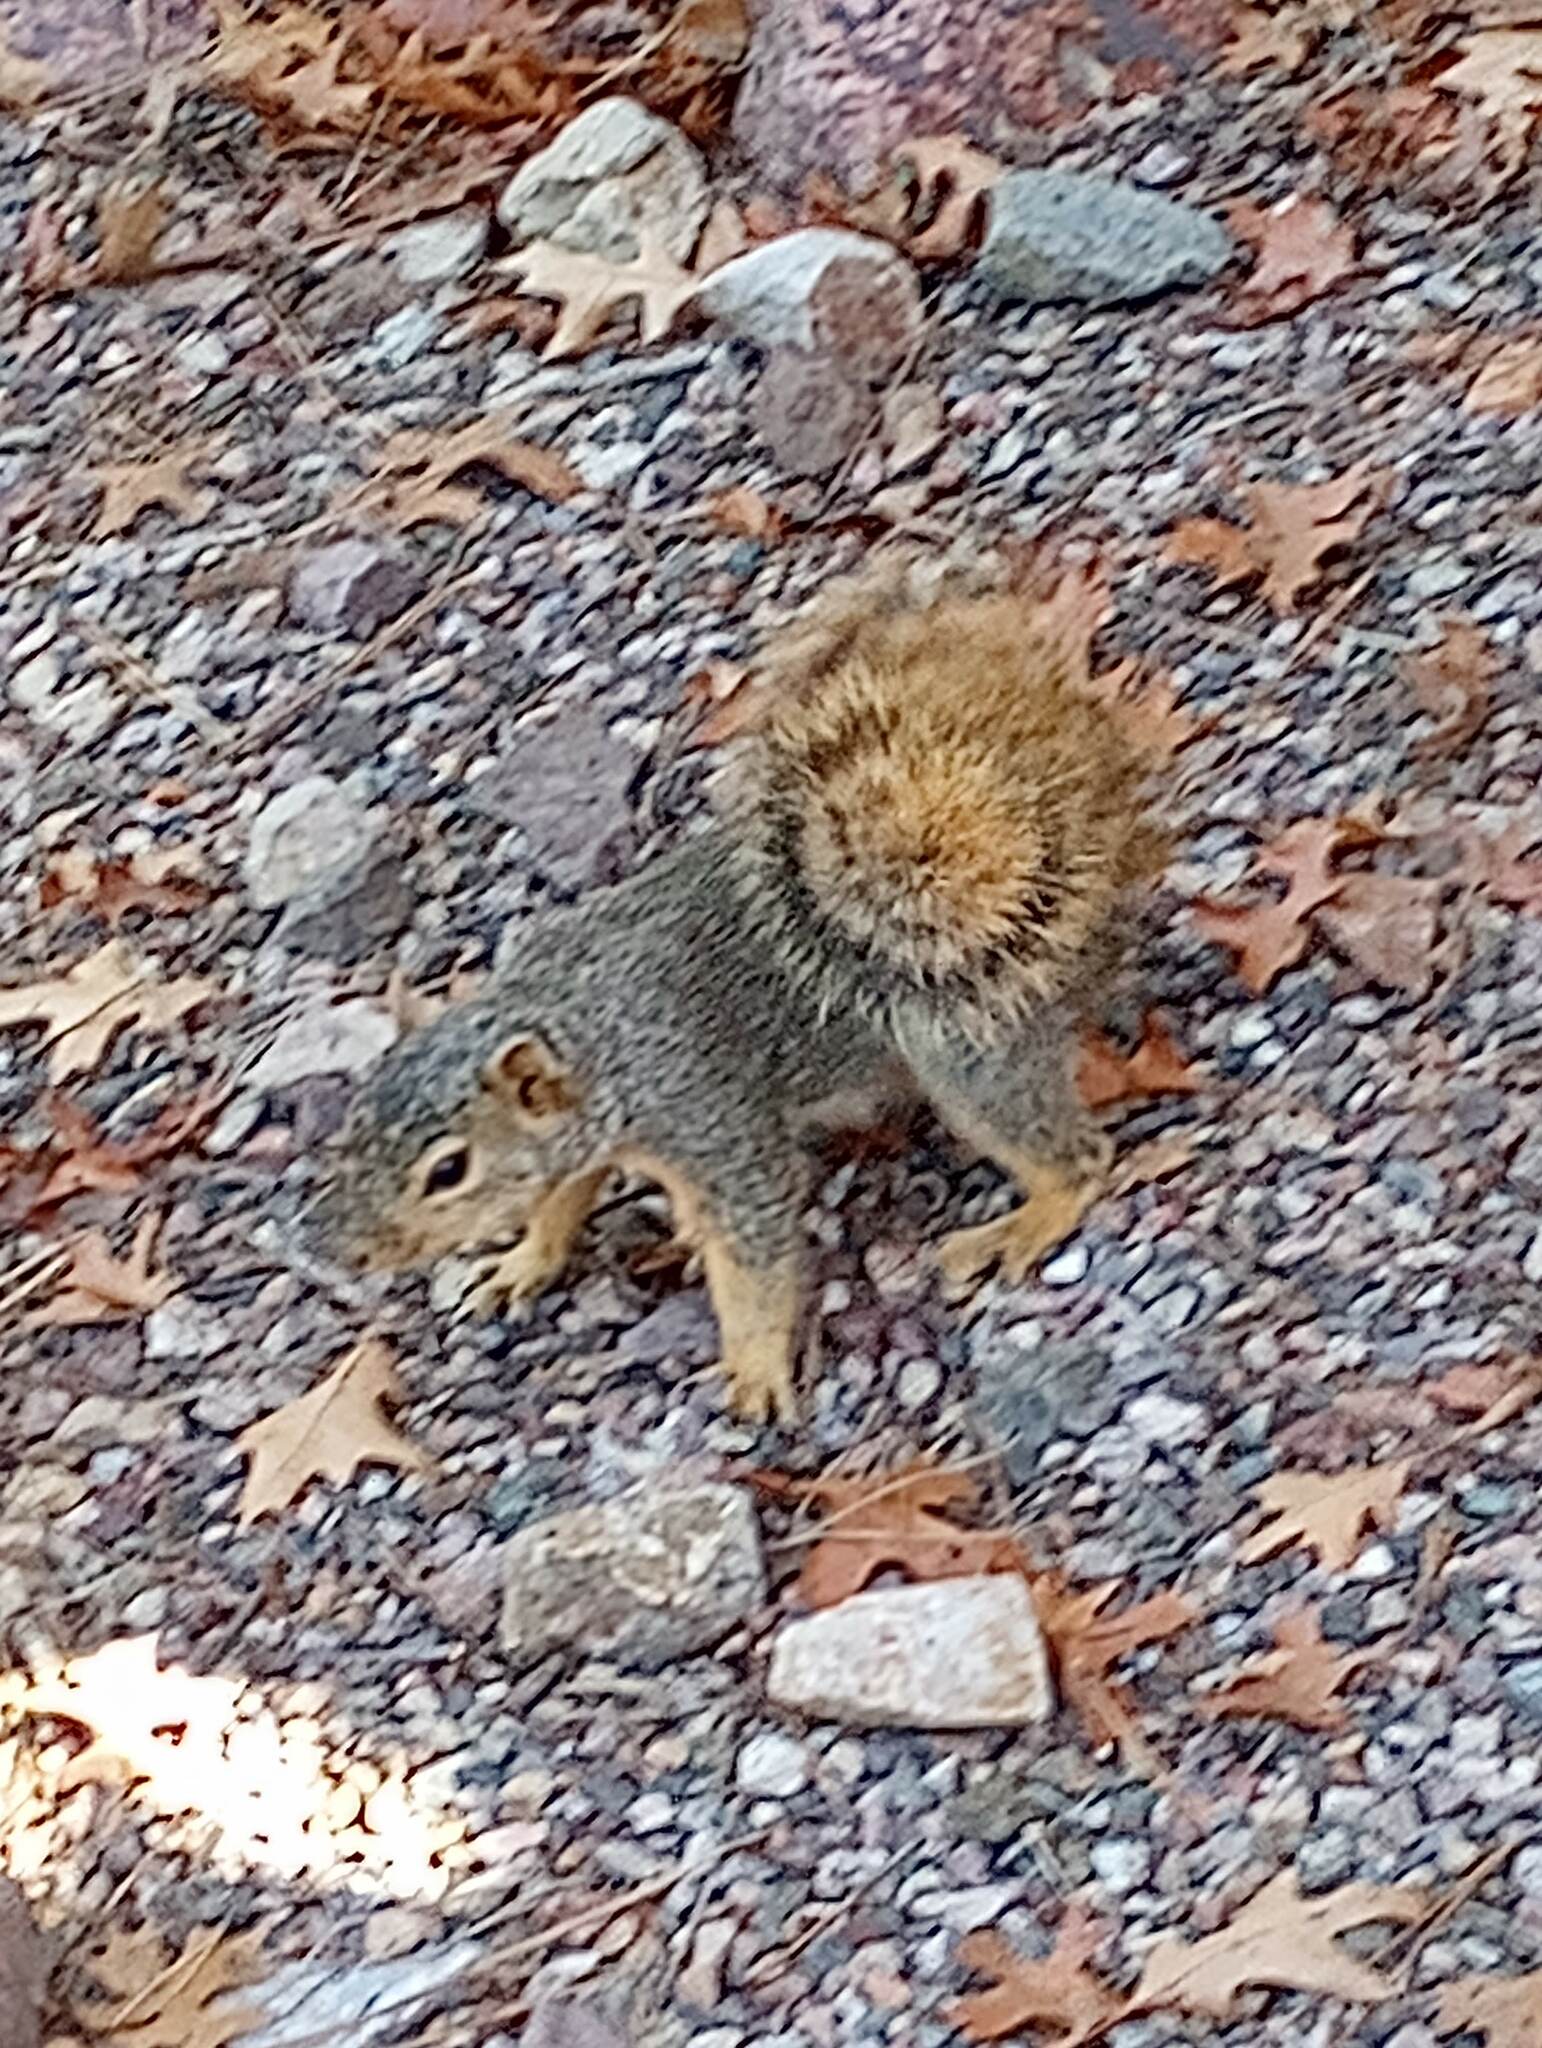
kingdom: Animalia
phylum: Chordata
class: Mammalia
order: Rodentia
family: Sciuridae
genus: Sciurus
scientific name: Sciurus niger
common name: Fox squirrel
